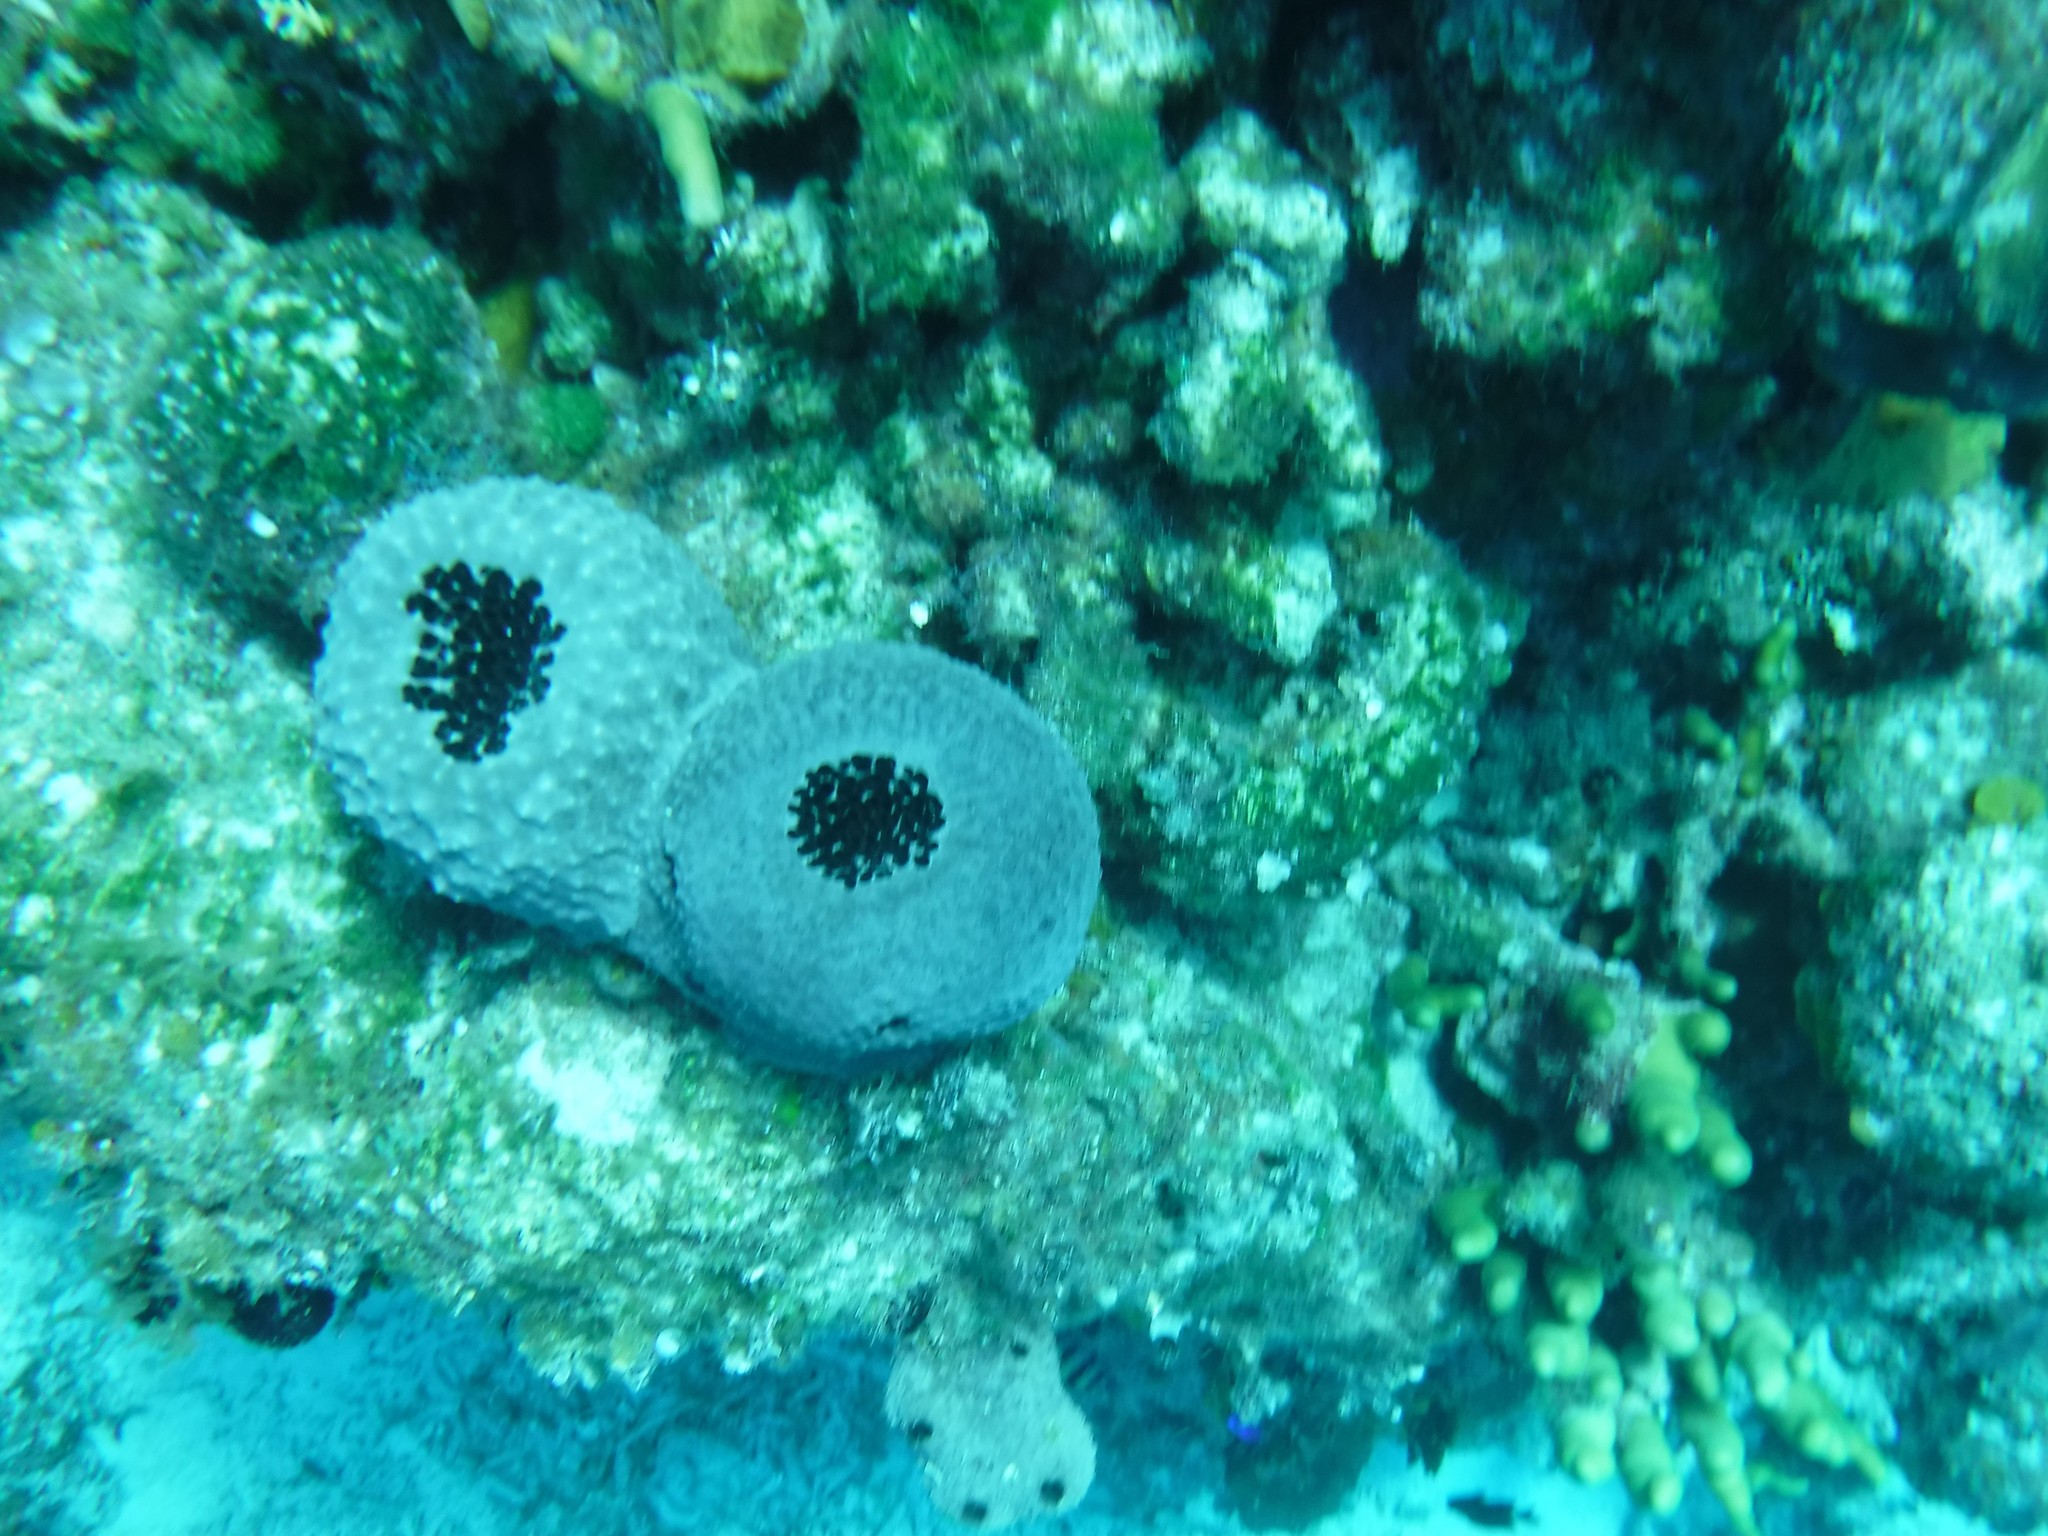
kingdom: Animalia
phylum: Porifera
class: Demospongiae
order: Dictyoceratida
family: Irciniidae
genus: Ircinia
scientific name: Ircinia strobilina
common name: Cake sponge
